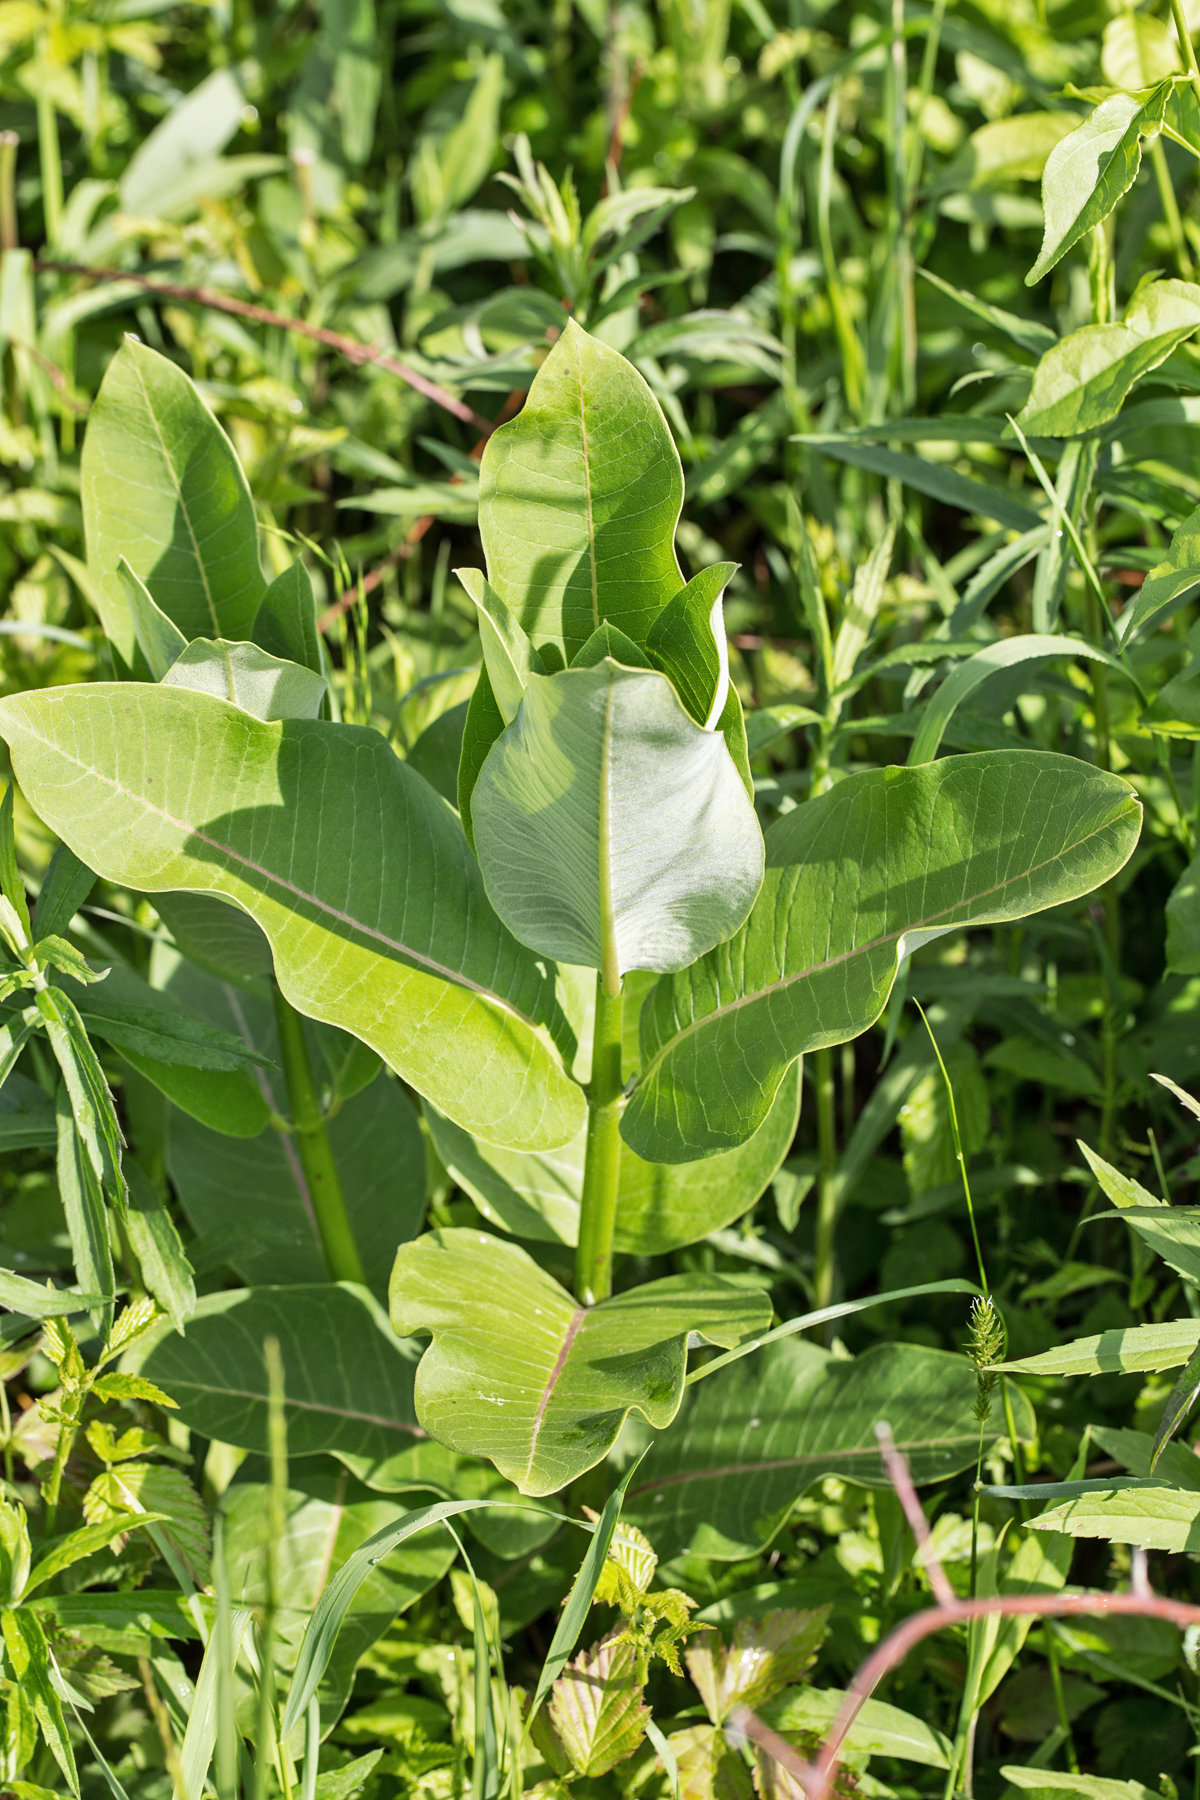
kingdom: Plantae
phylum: Tracheophyta
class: Magnoliopsida
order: Gentianales
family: Apocynaceae
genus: Asclepias
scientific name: Asclepias syriaca
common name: Common milkweed
